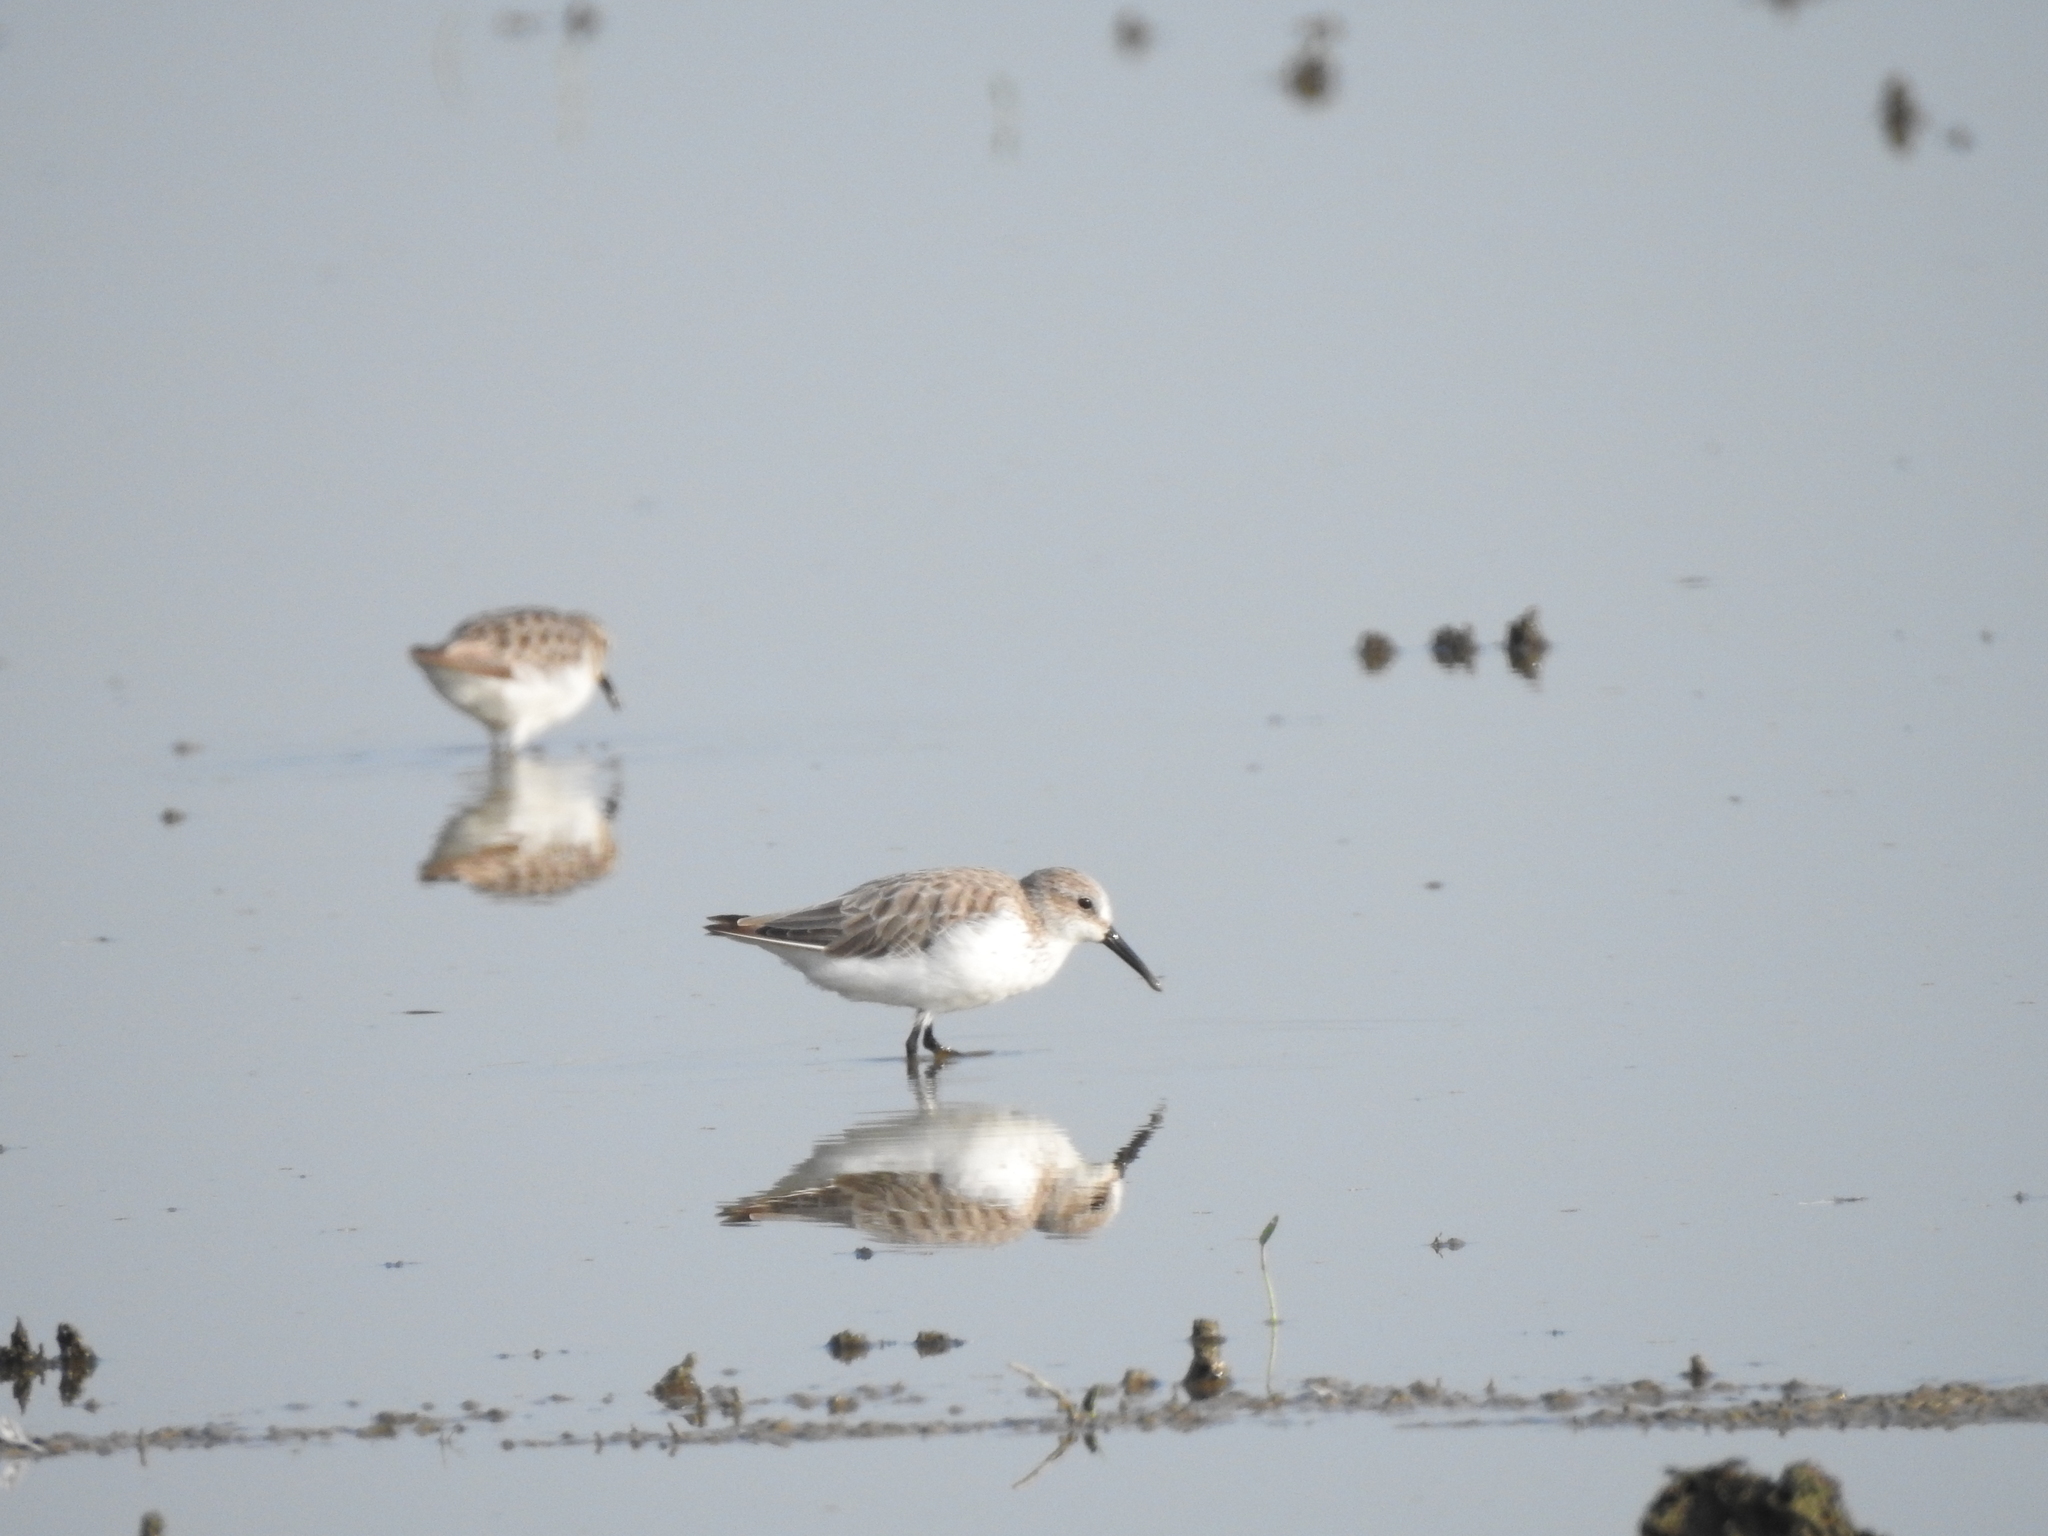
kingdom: Animalia
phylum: Chordata
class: Aves
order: Charadriiformes
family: Scolopacidae
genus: Calidris
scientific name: Calidris mauri
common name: Western sandpiper
